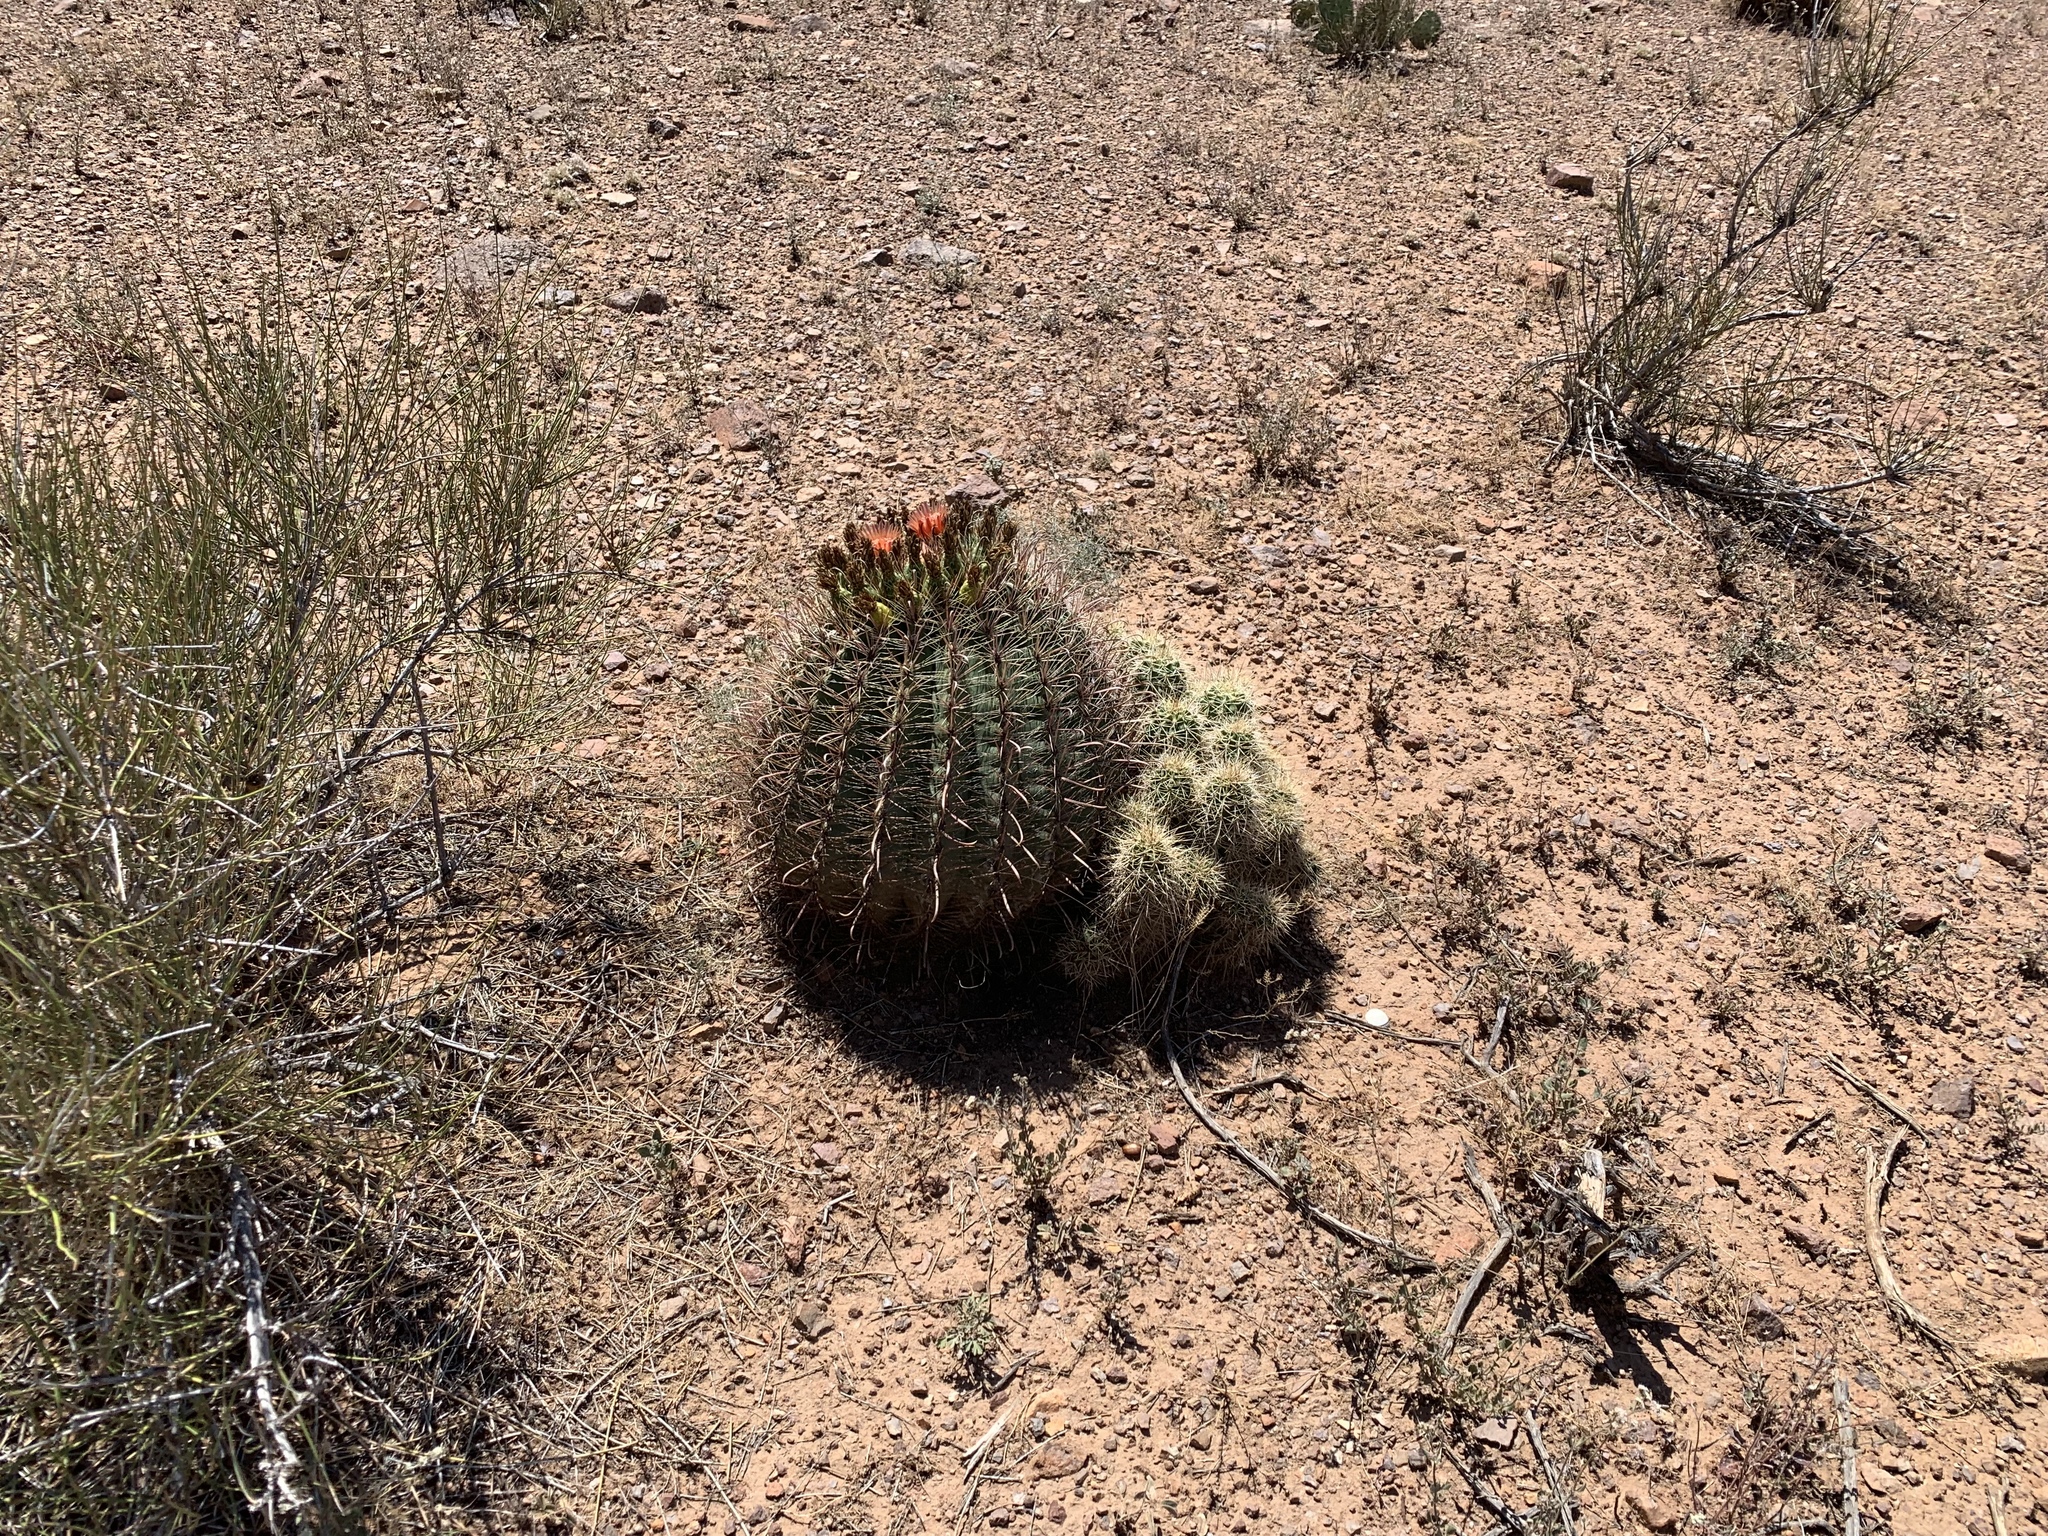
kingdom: Plantae
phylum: Tracheophyta
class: Magnoliopsida
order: Caryophyllales
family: Cactaceae
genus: Ferocactus
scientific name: Ferocactus wislizeni
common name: Candy barrel cactus
